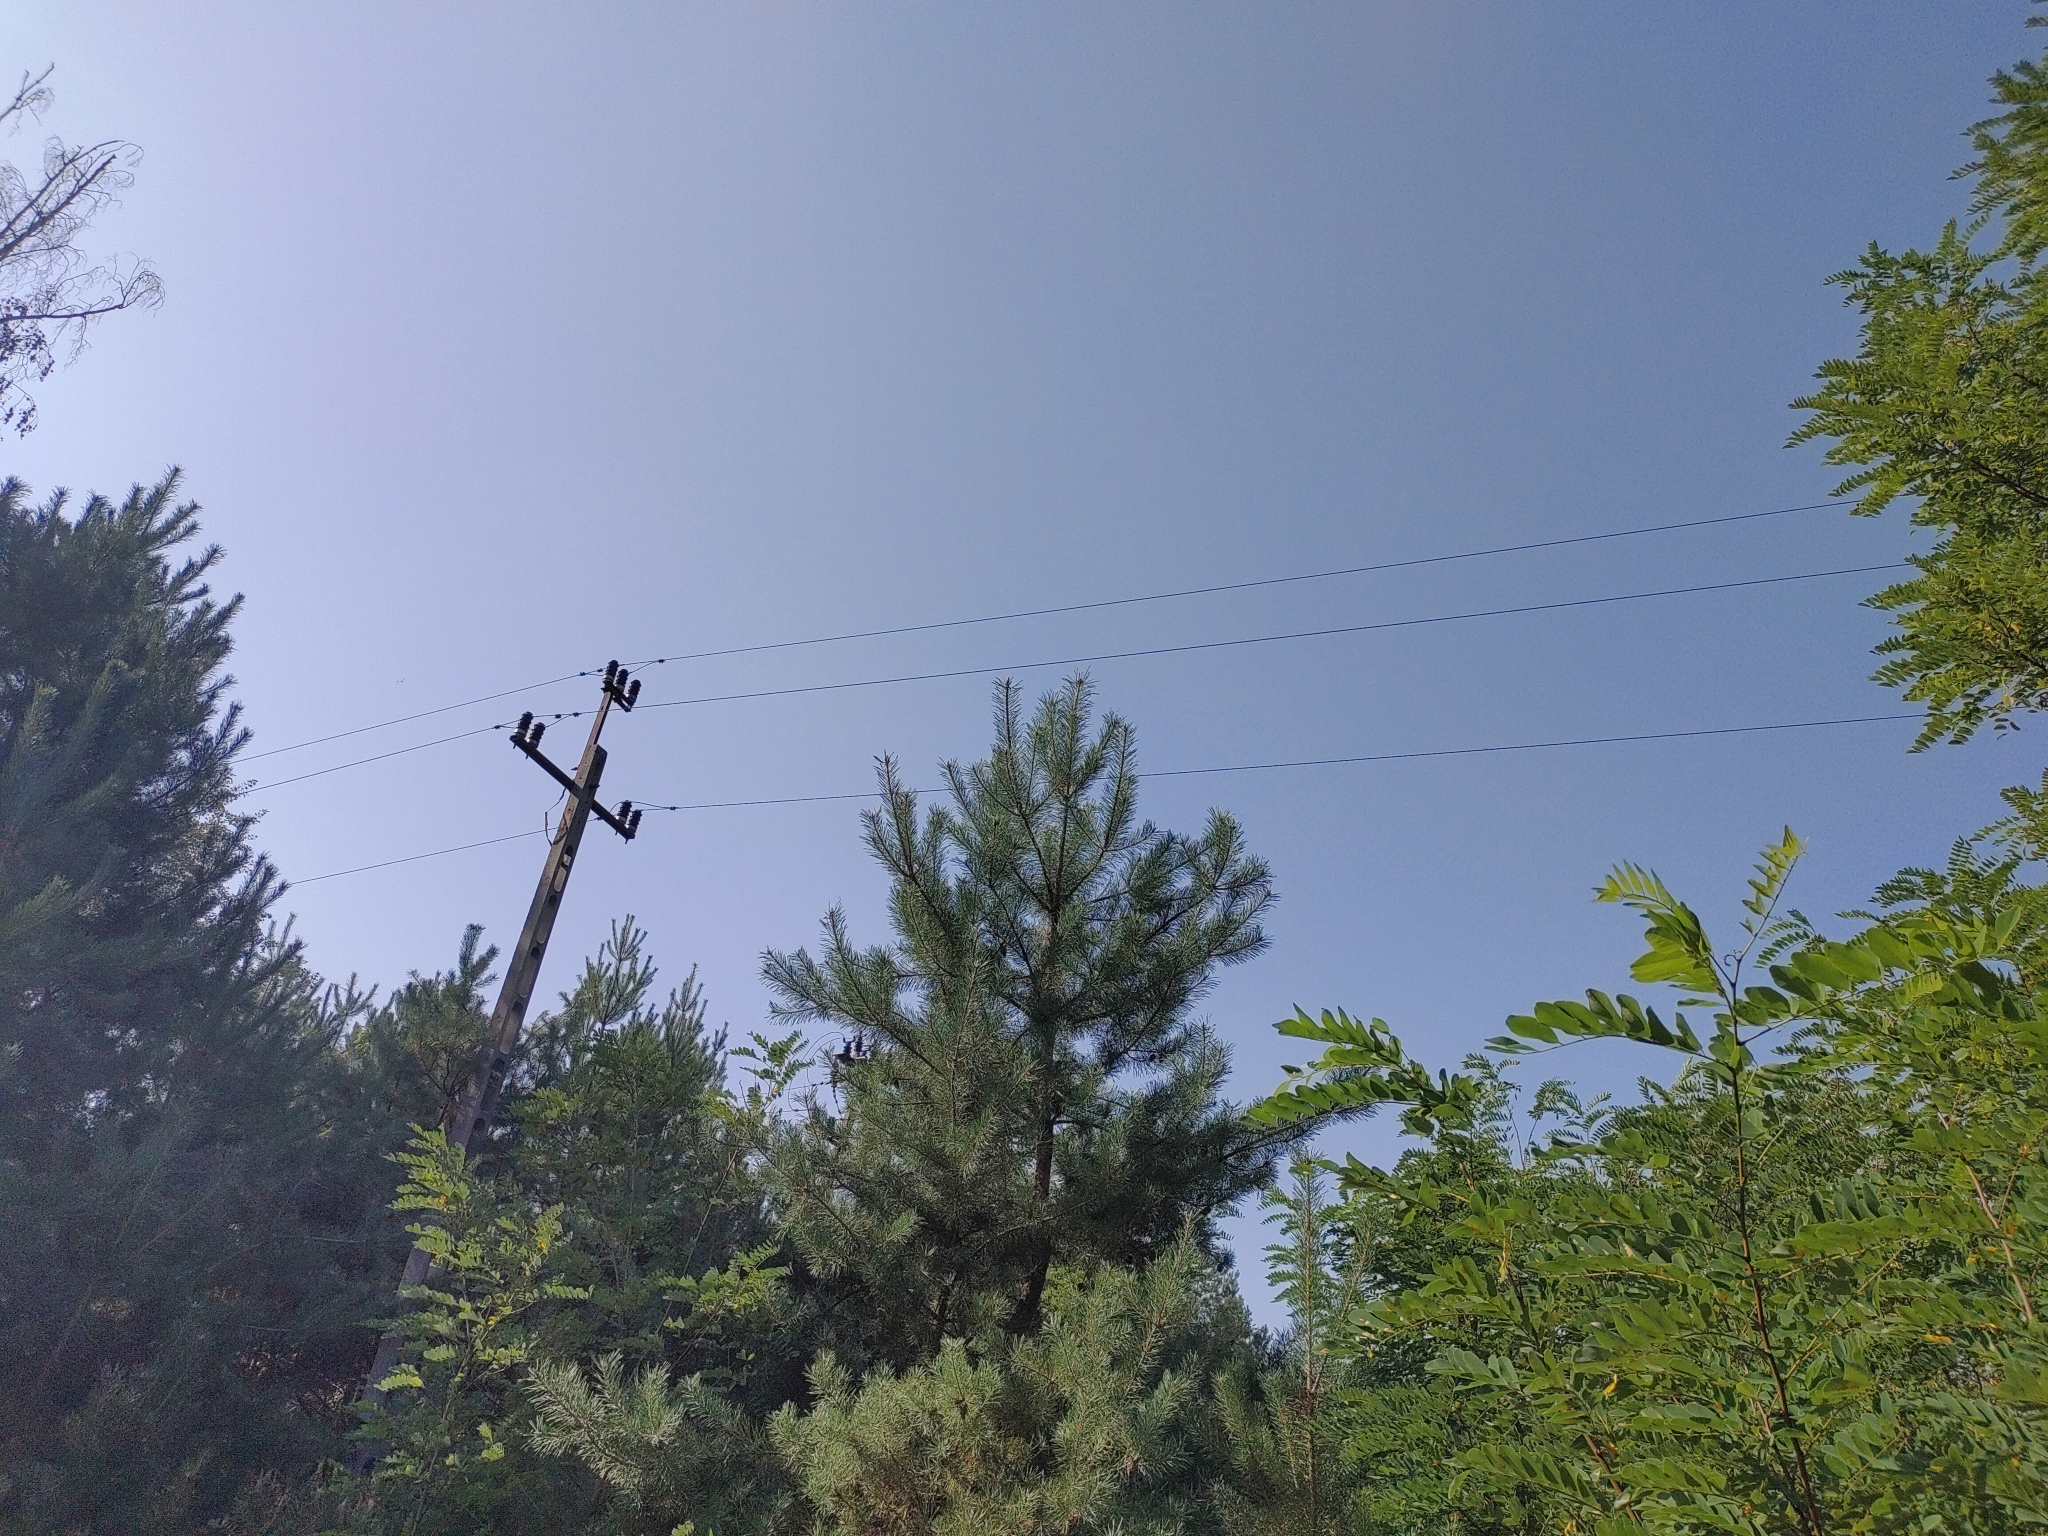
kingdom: Animalia
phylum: Chordata
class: Aves
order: Accipitriformes
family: Accipitridae
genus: Buteo
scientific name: Buteo buteo
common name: Common buzzard
